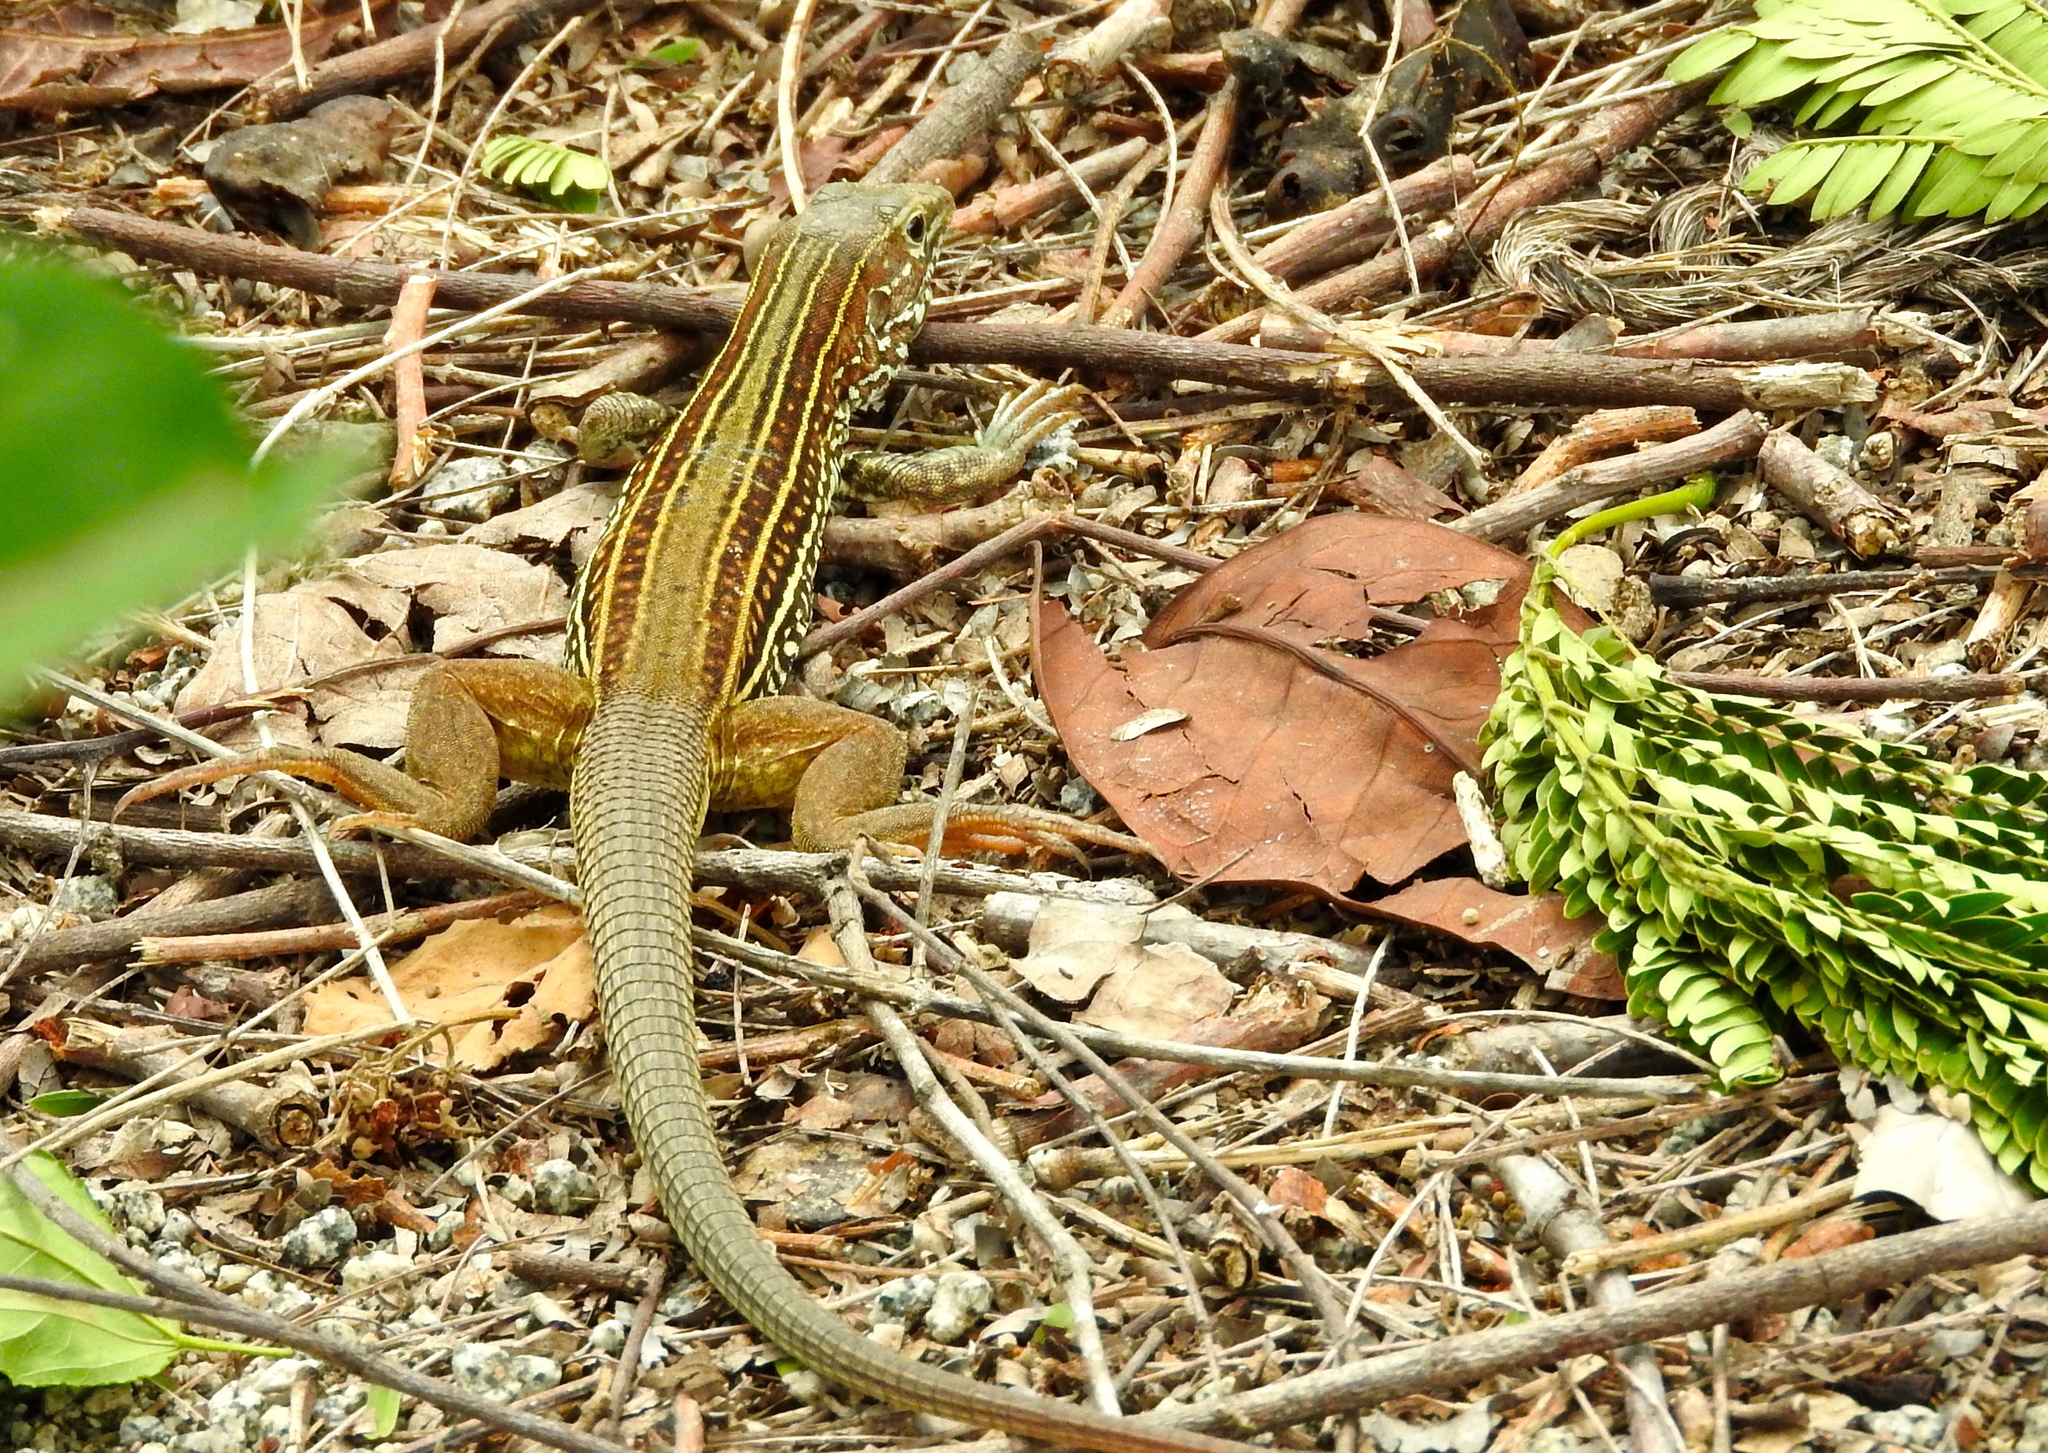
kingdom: Animalia
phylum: Chordata
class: Squamata
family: Teiidae
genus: Aspidoscelis
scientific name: Aspidoscelis costatus
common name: Western mexico whiptail
